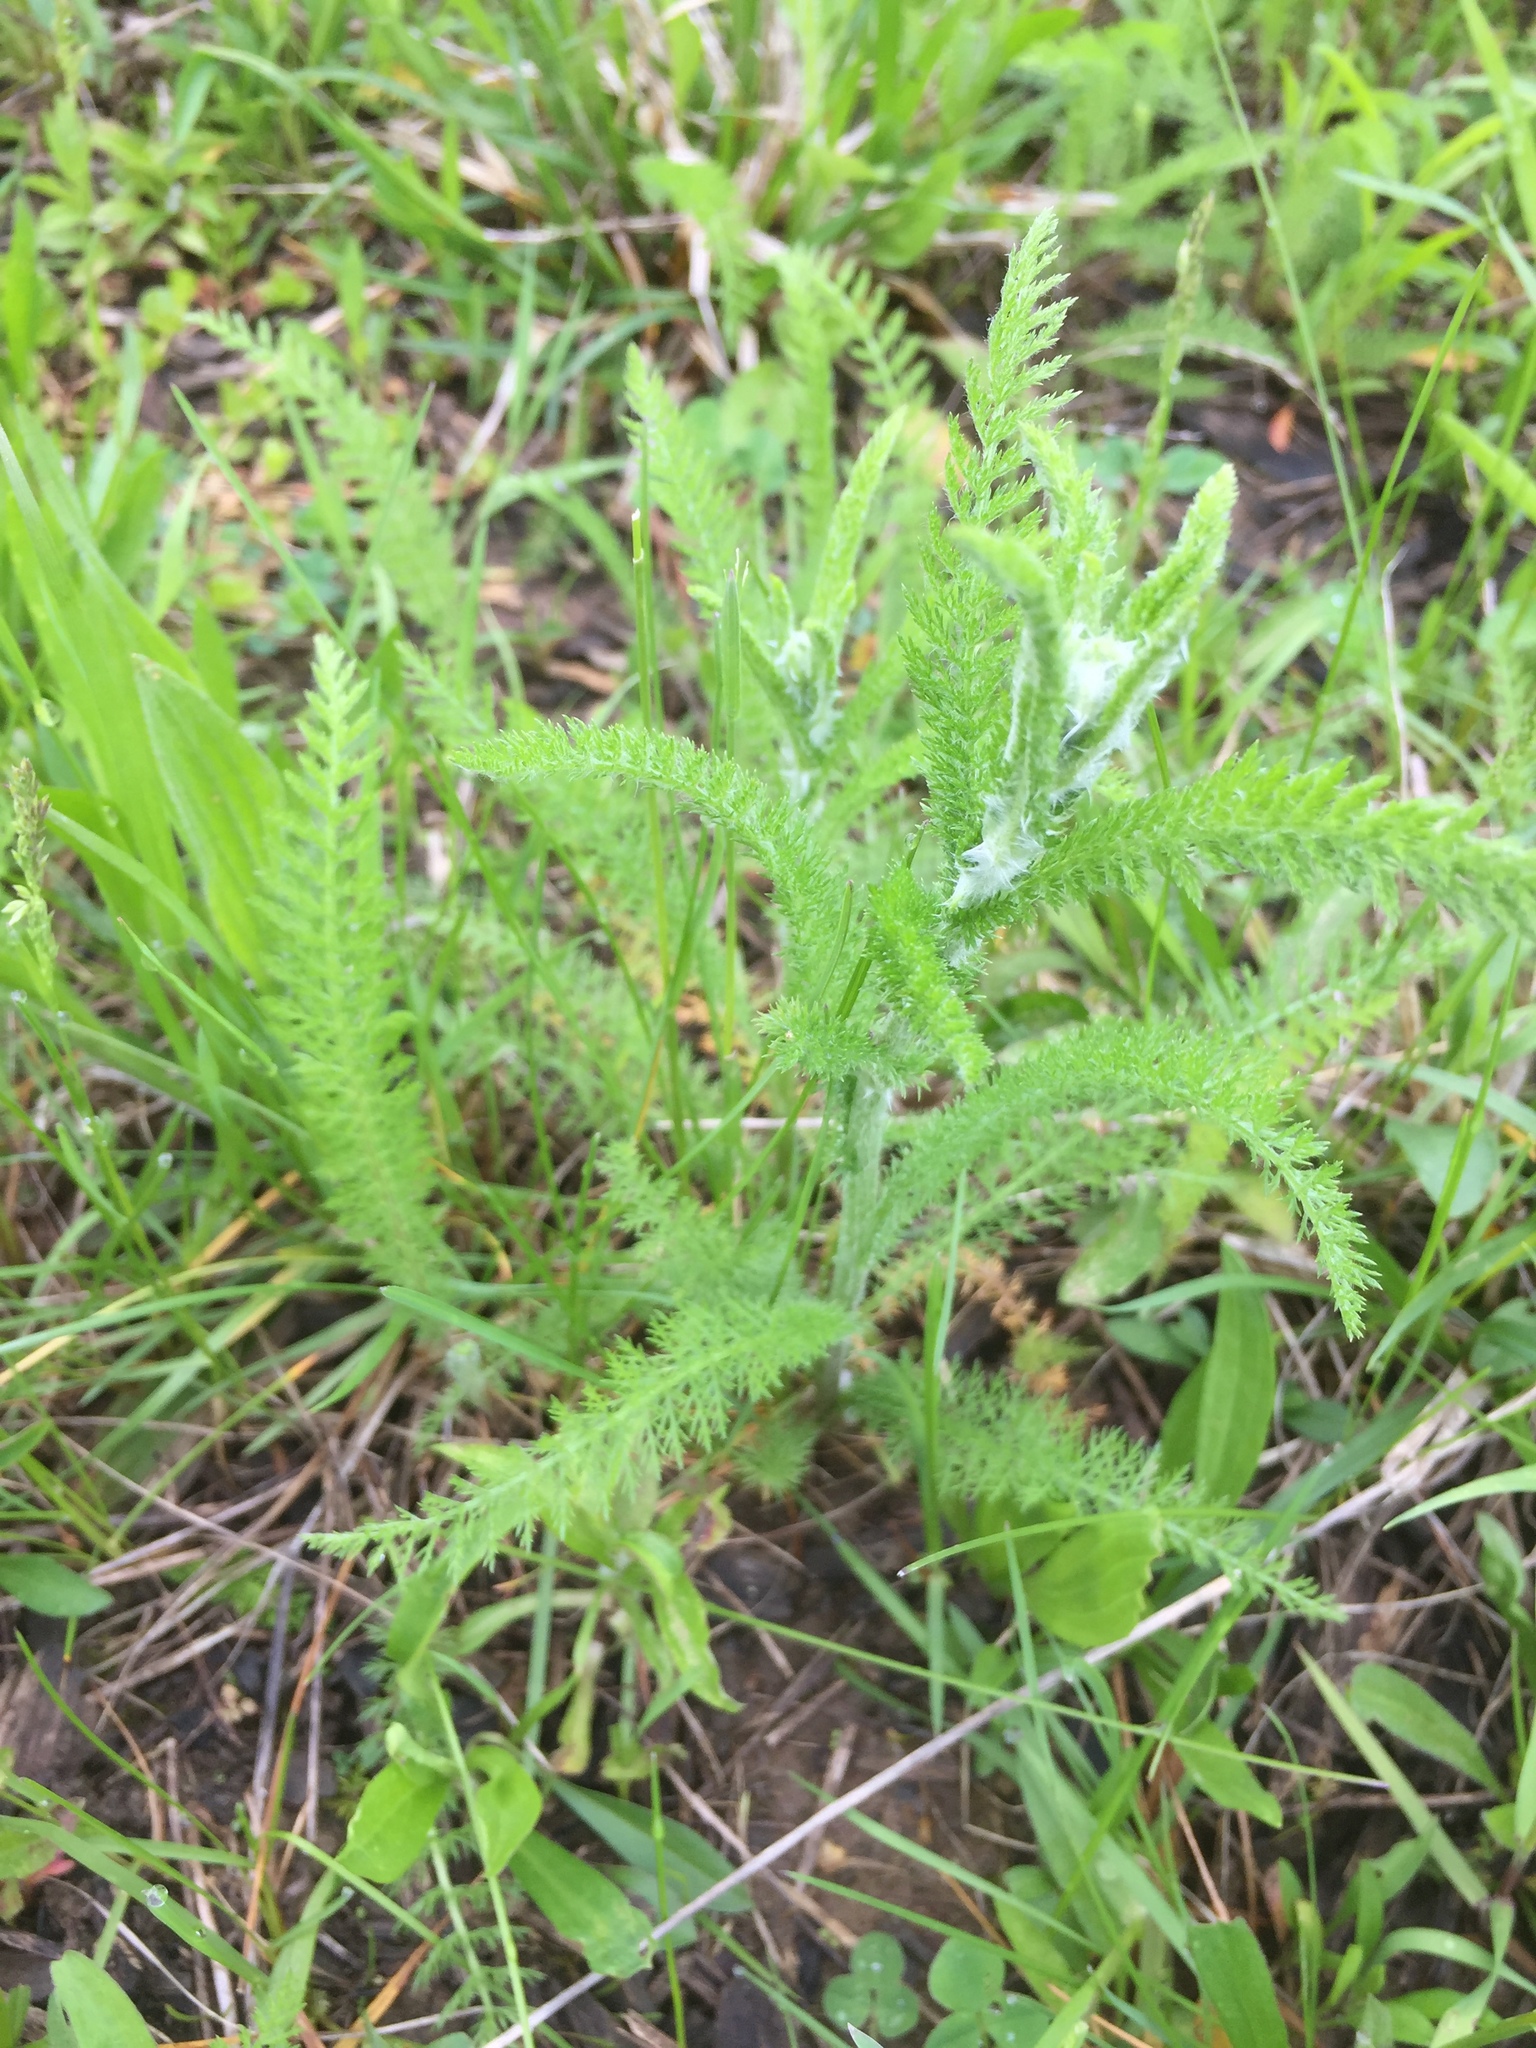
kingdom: Plantae
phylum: Tracheophyta
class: Magnoliopsida
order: Asterales
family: Asteraceae
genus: Achillea
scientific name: Achillea millefolium
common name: Yarrow
